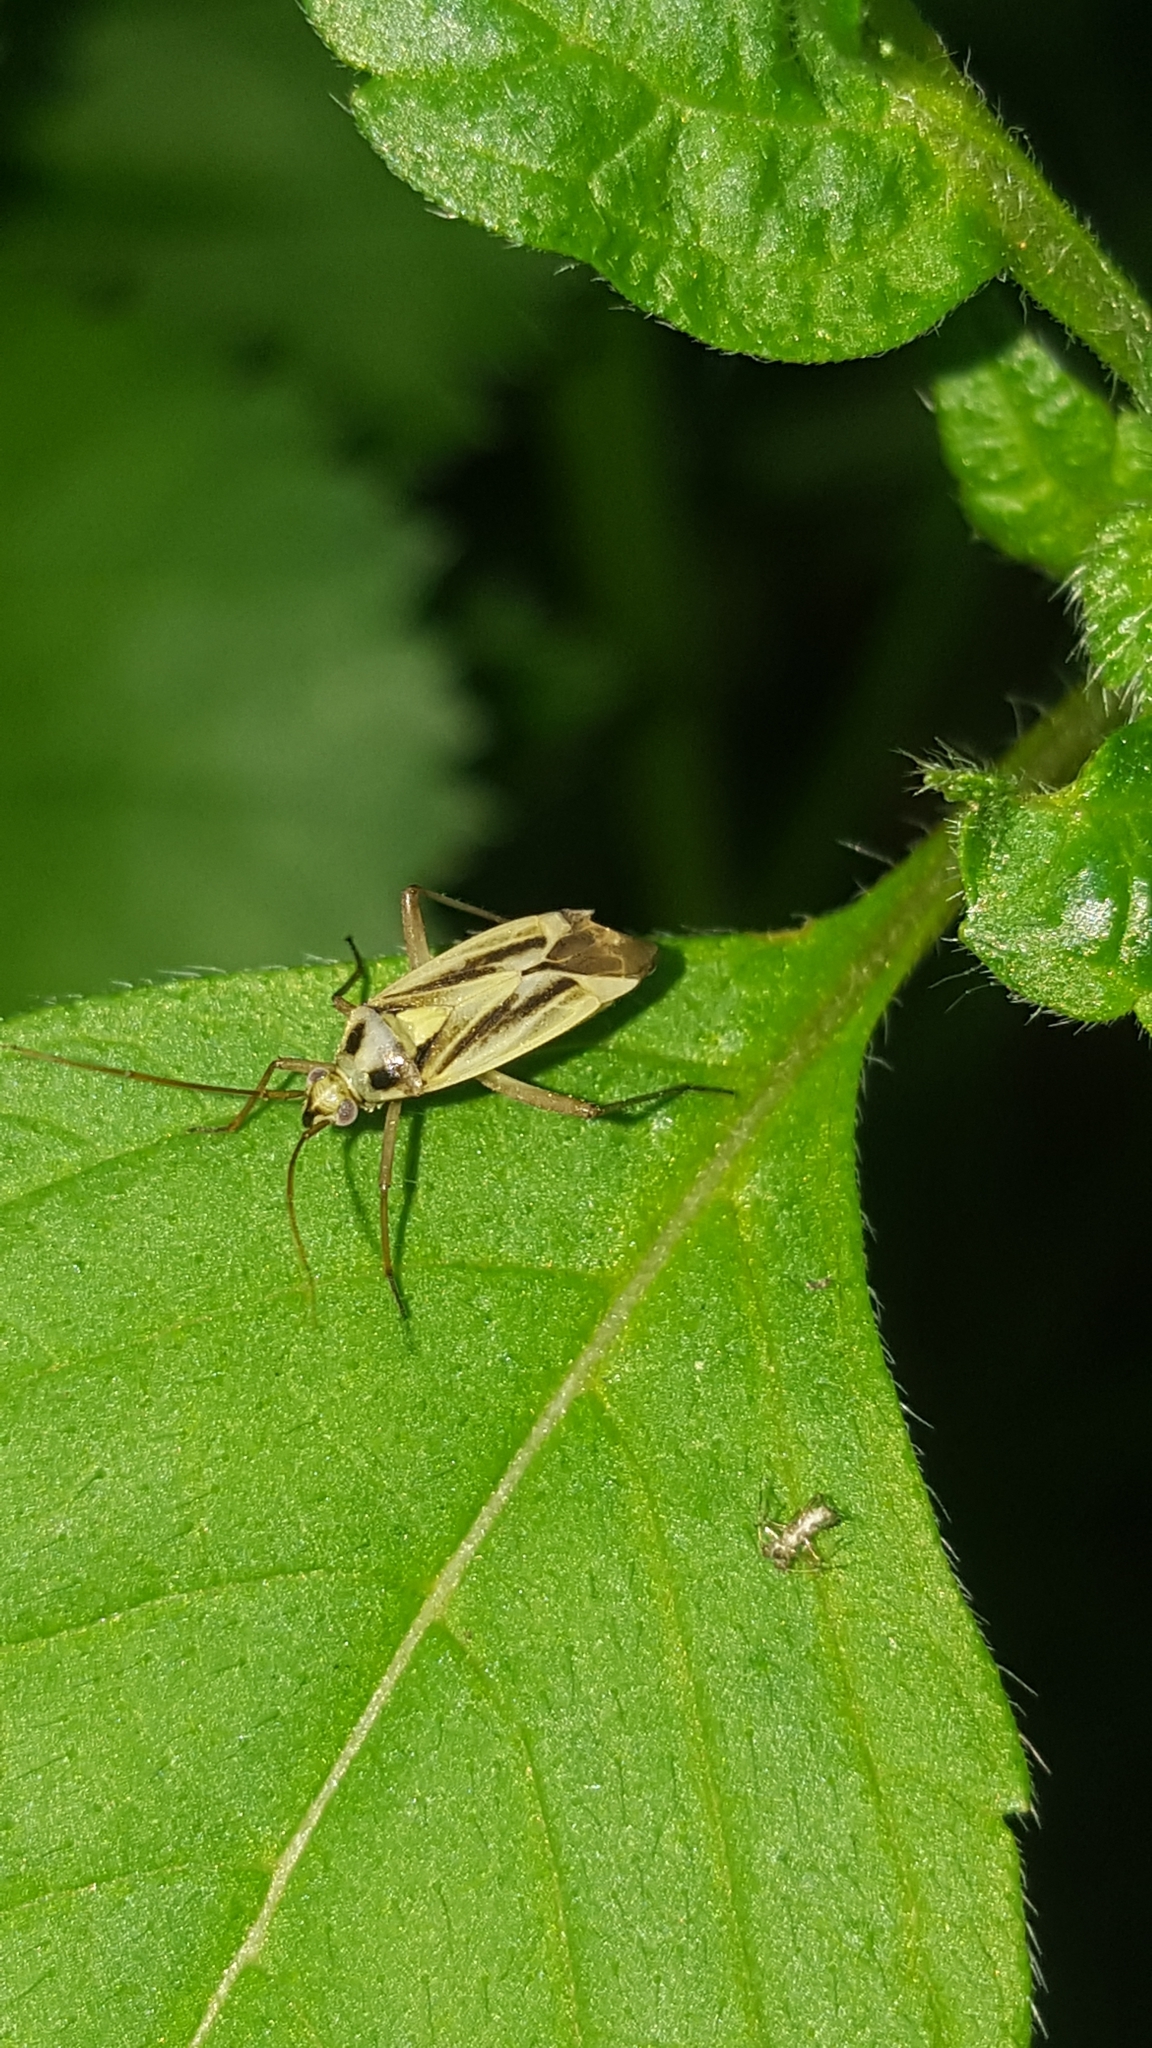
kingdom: Animalia
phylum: Arthropoda
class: Insecta
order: Hemiptera
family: Miridae
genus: Stenotus
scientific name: Stenotus binotatus
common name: Plant bug
